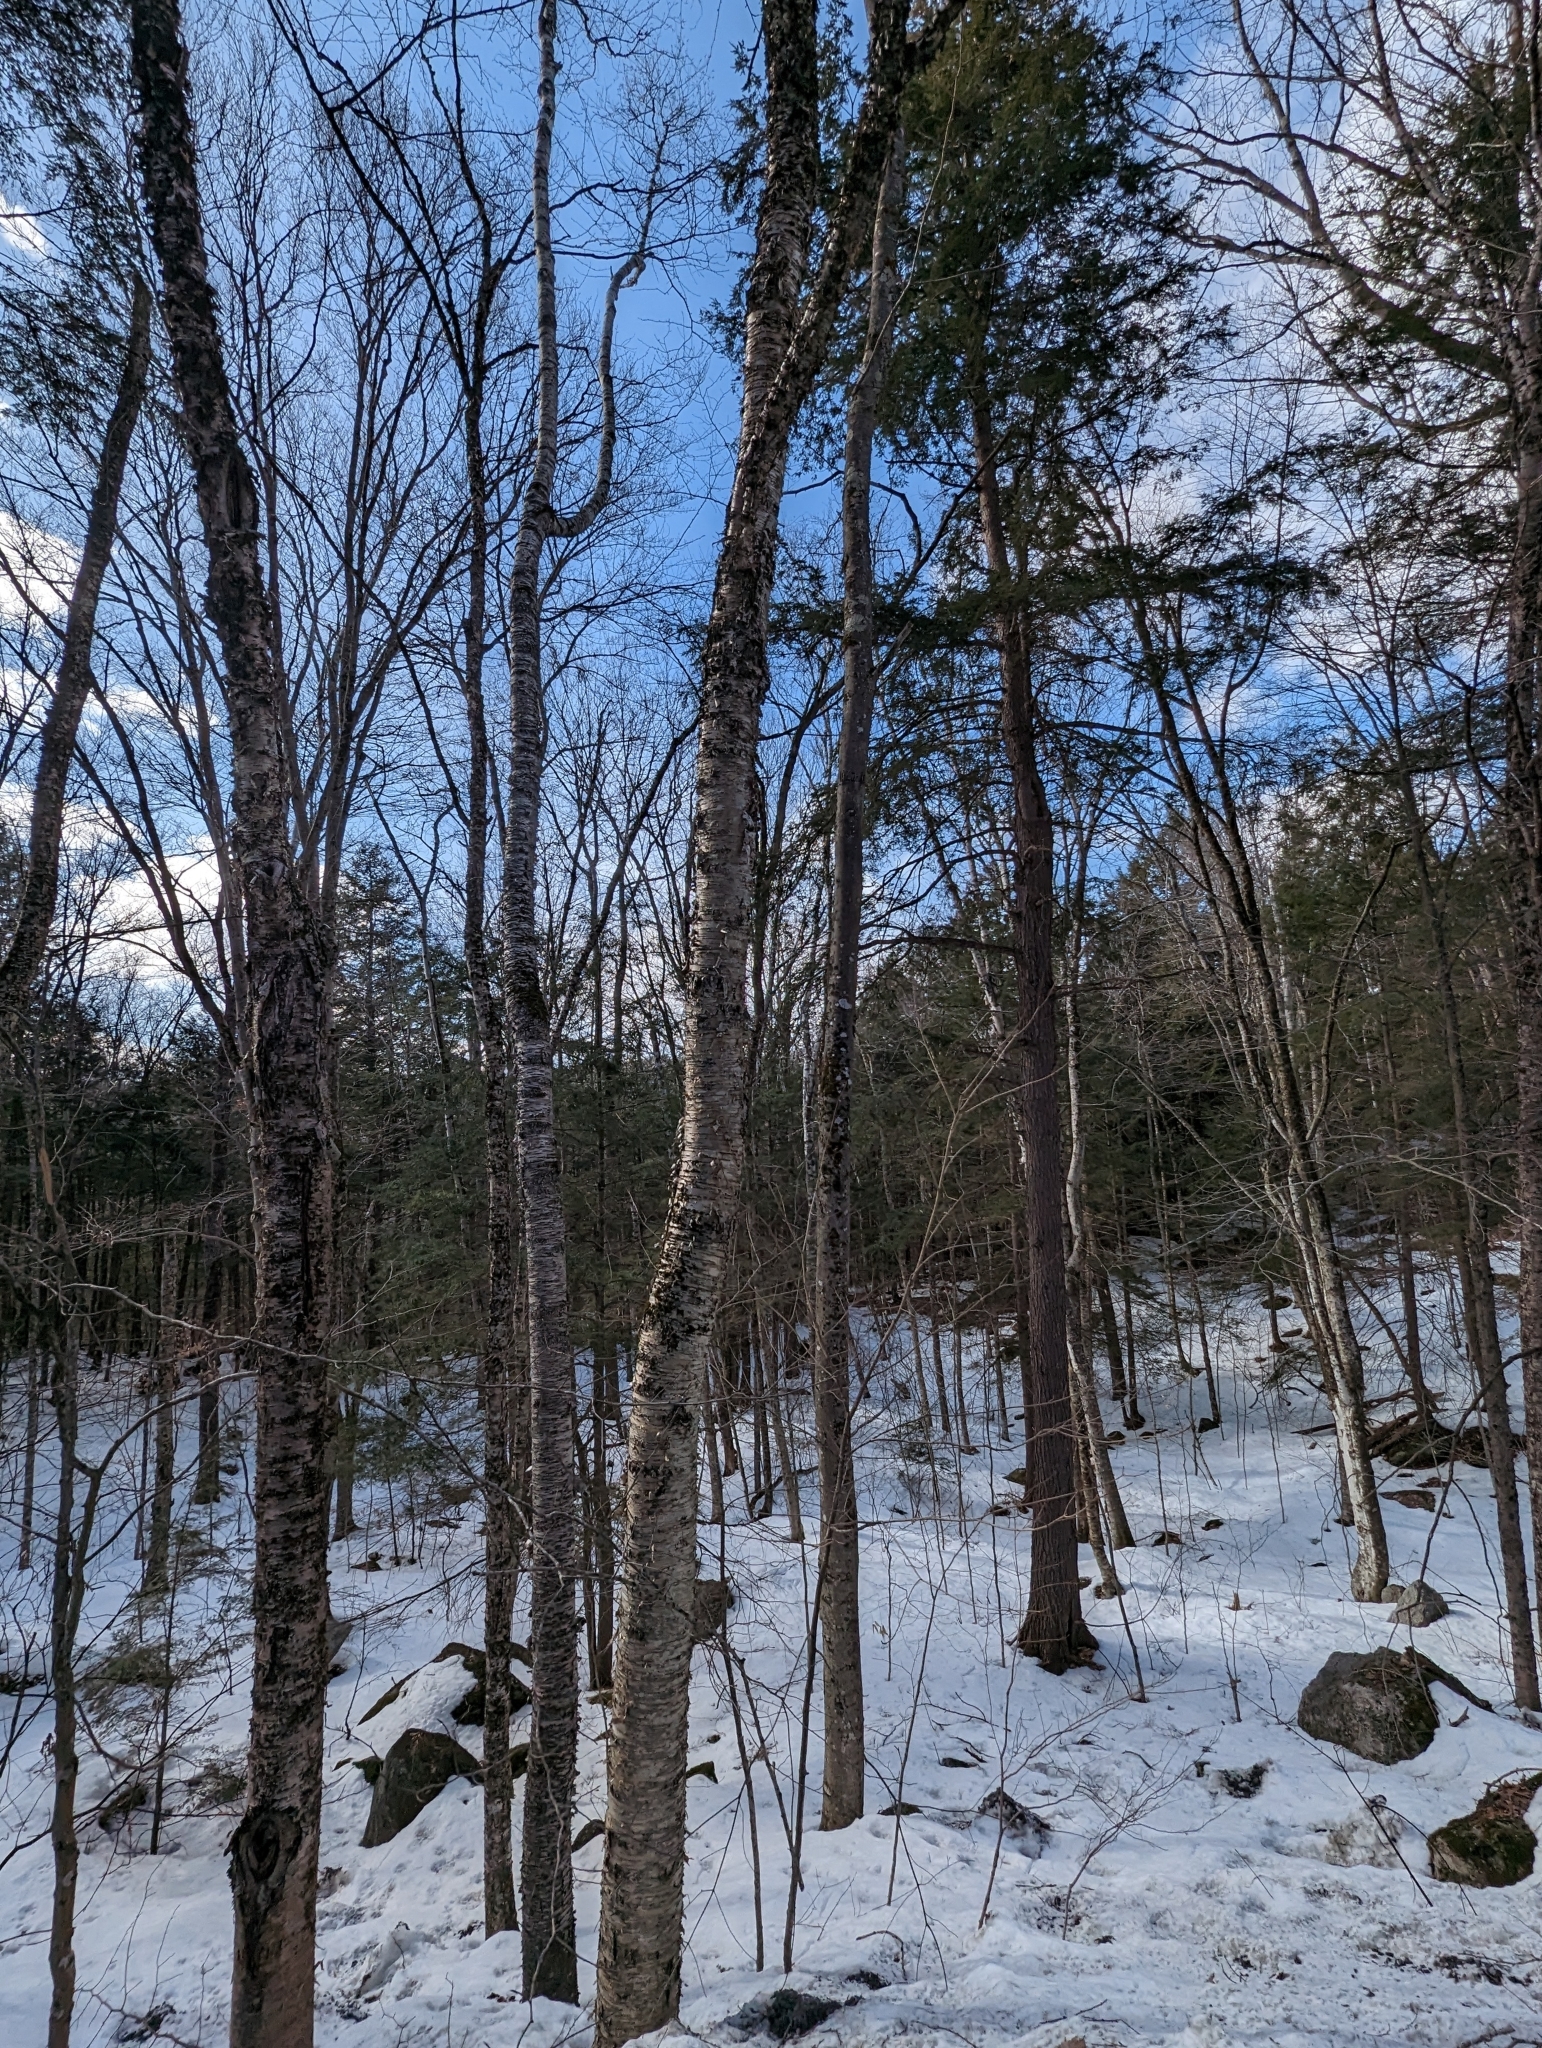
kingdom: Plantae
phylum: Tracheophyta
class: Magnoliopsida
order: Fagales
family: Betulaceae
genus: Betula
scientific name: Betula alleghaniensis
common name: Yellow birch
